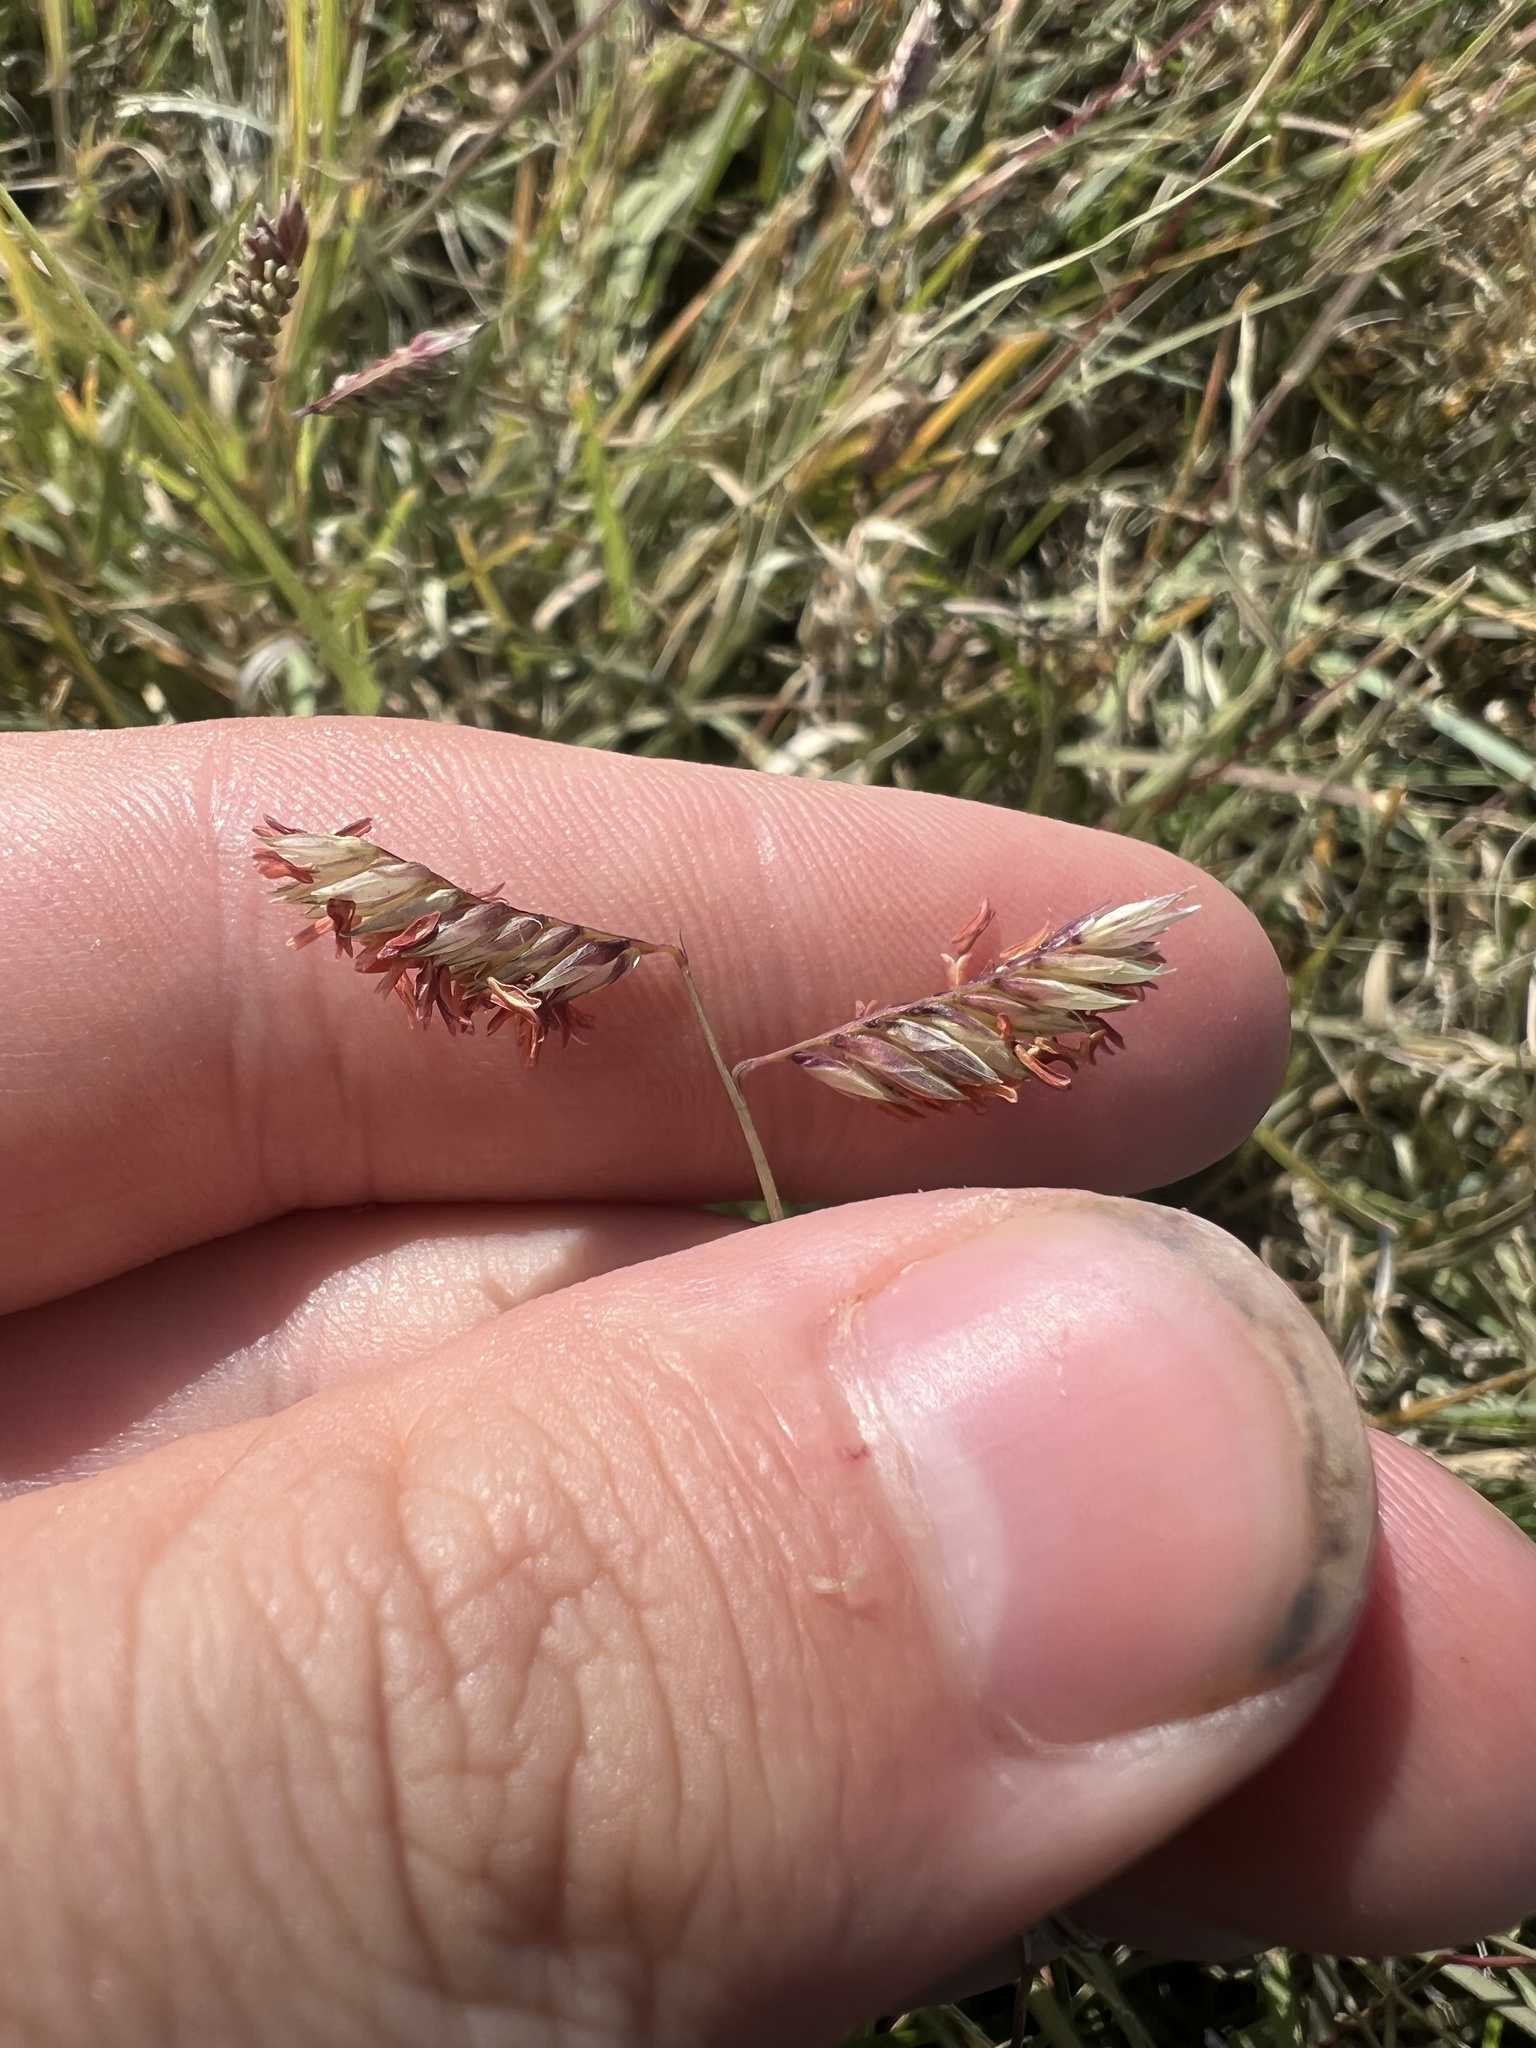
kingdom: Plantae
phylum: Tracheophyta
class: Liliopsida
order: Poales
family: Poaceae
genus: Bouteloua
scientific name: Bouteloua dactyloides
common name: Buffalo grass
